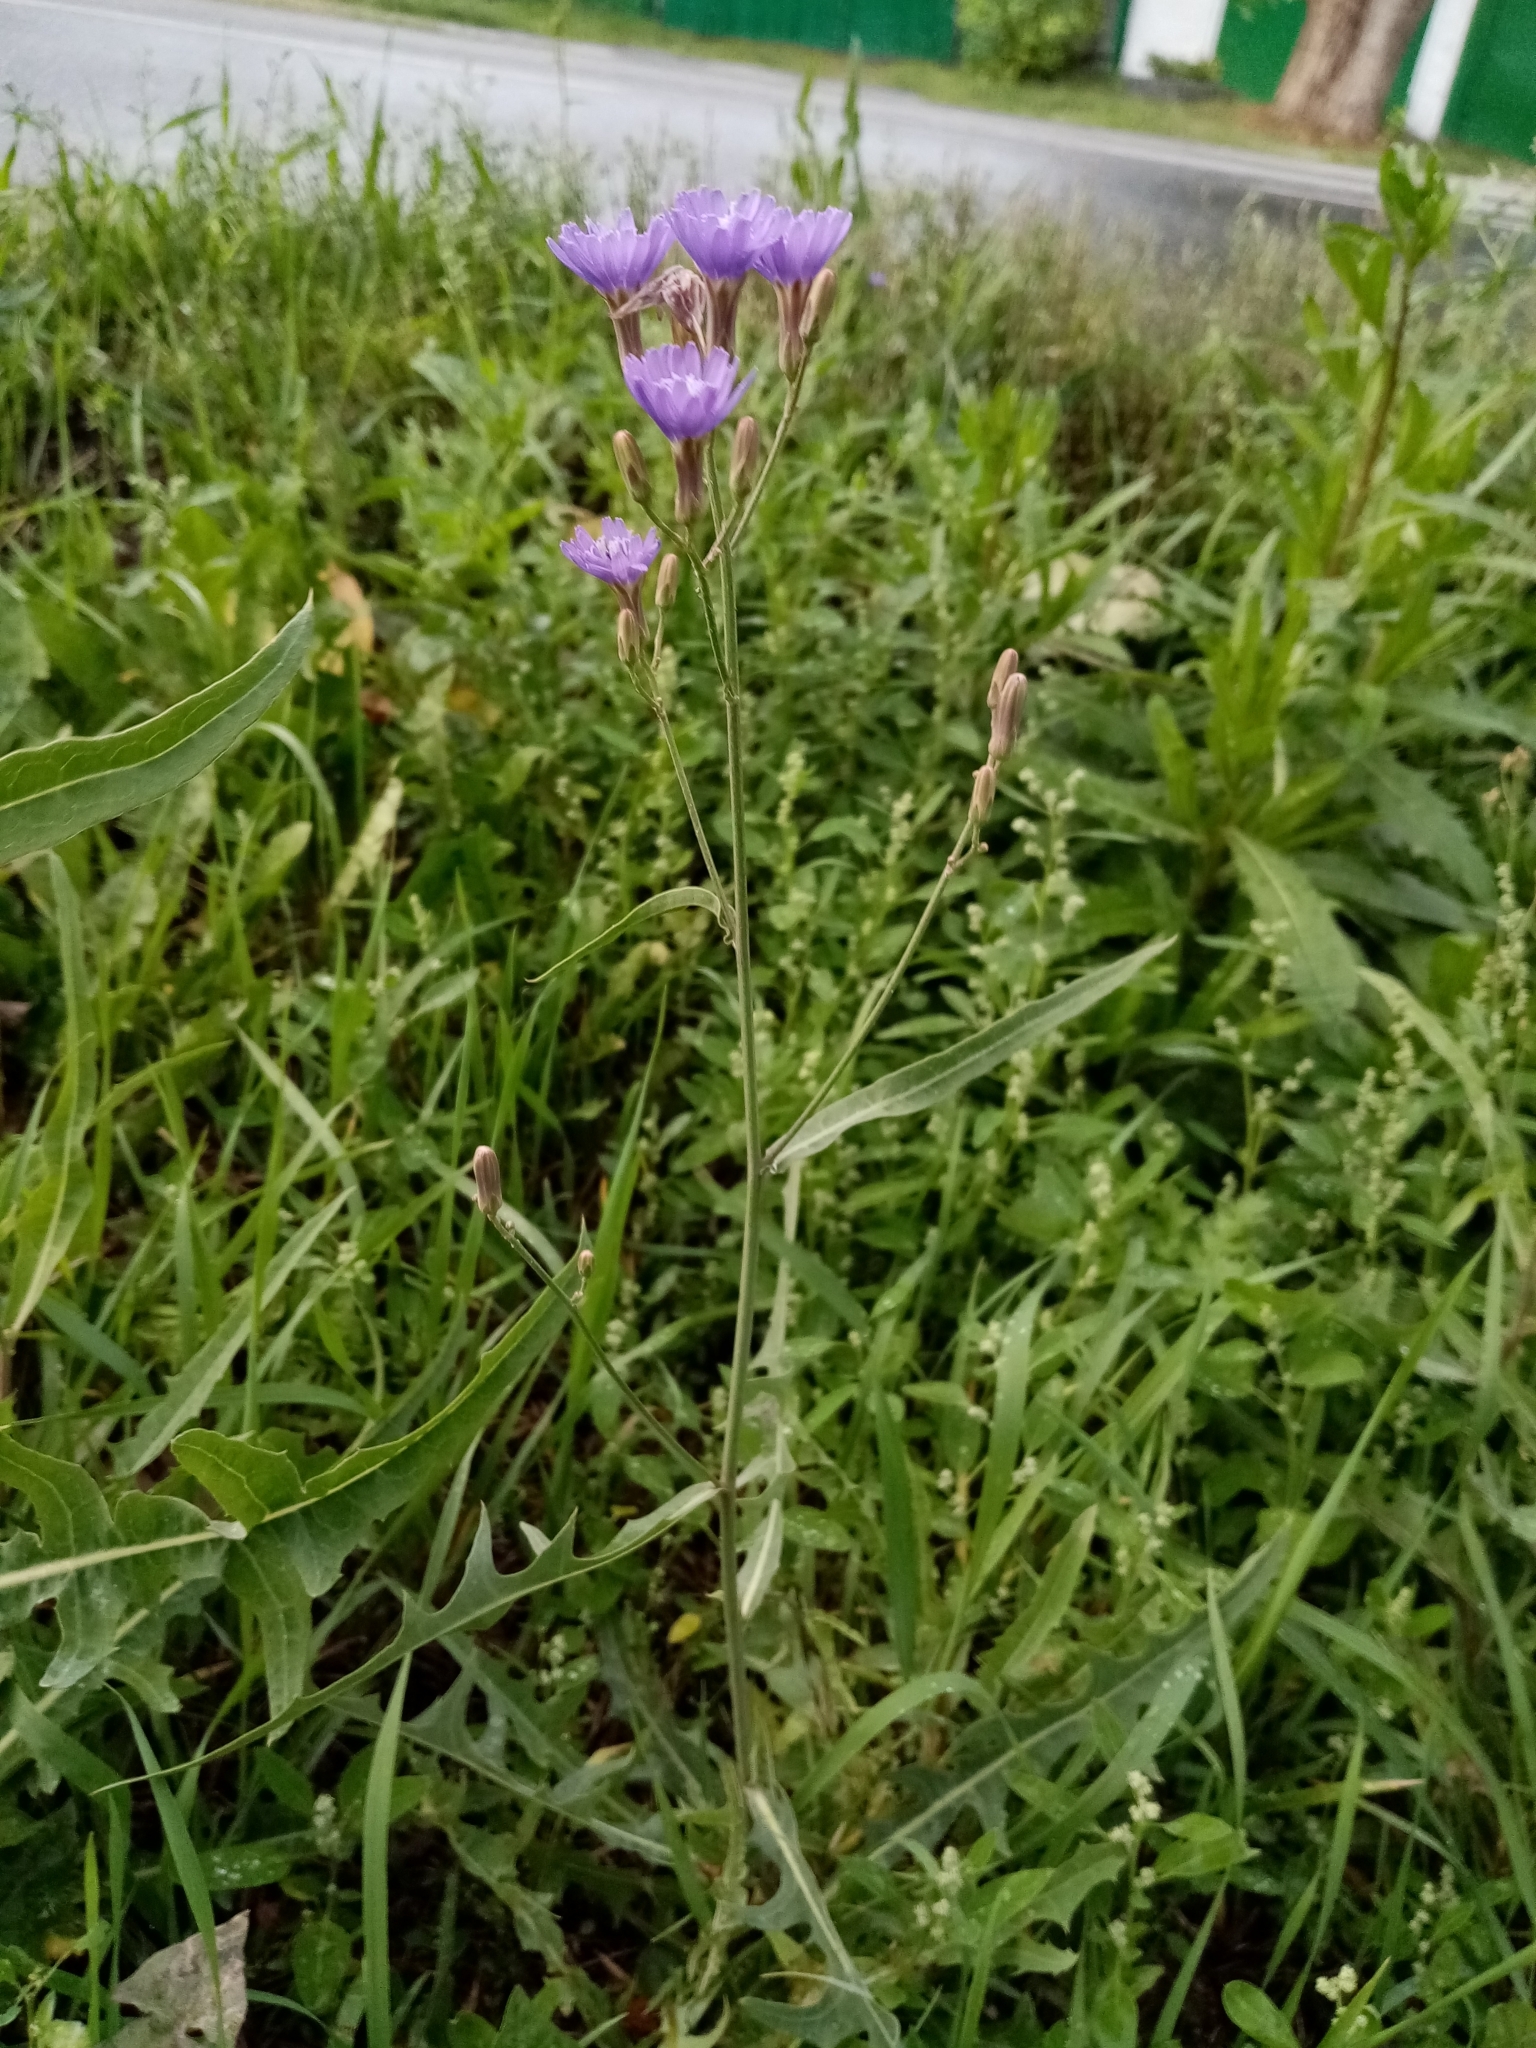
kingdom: Plantae
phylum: Tracheophyta
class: Magnoliopsida
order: Asterales
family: Asteraceae
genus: Lactuca
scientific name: Lactuca tatarica
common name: Blue lettuce
